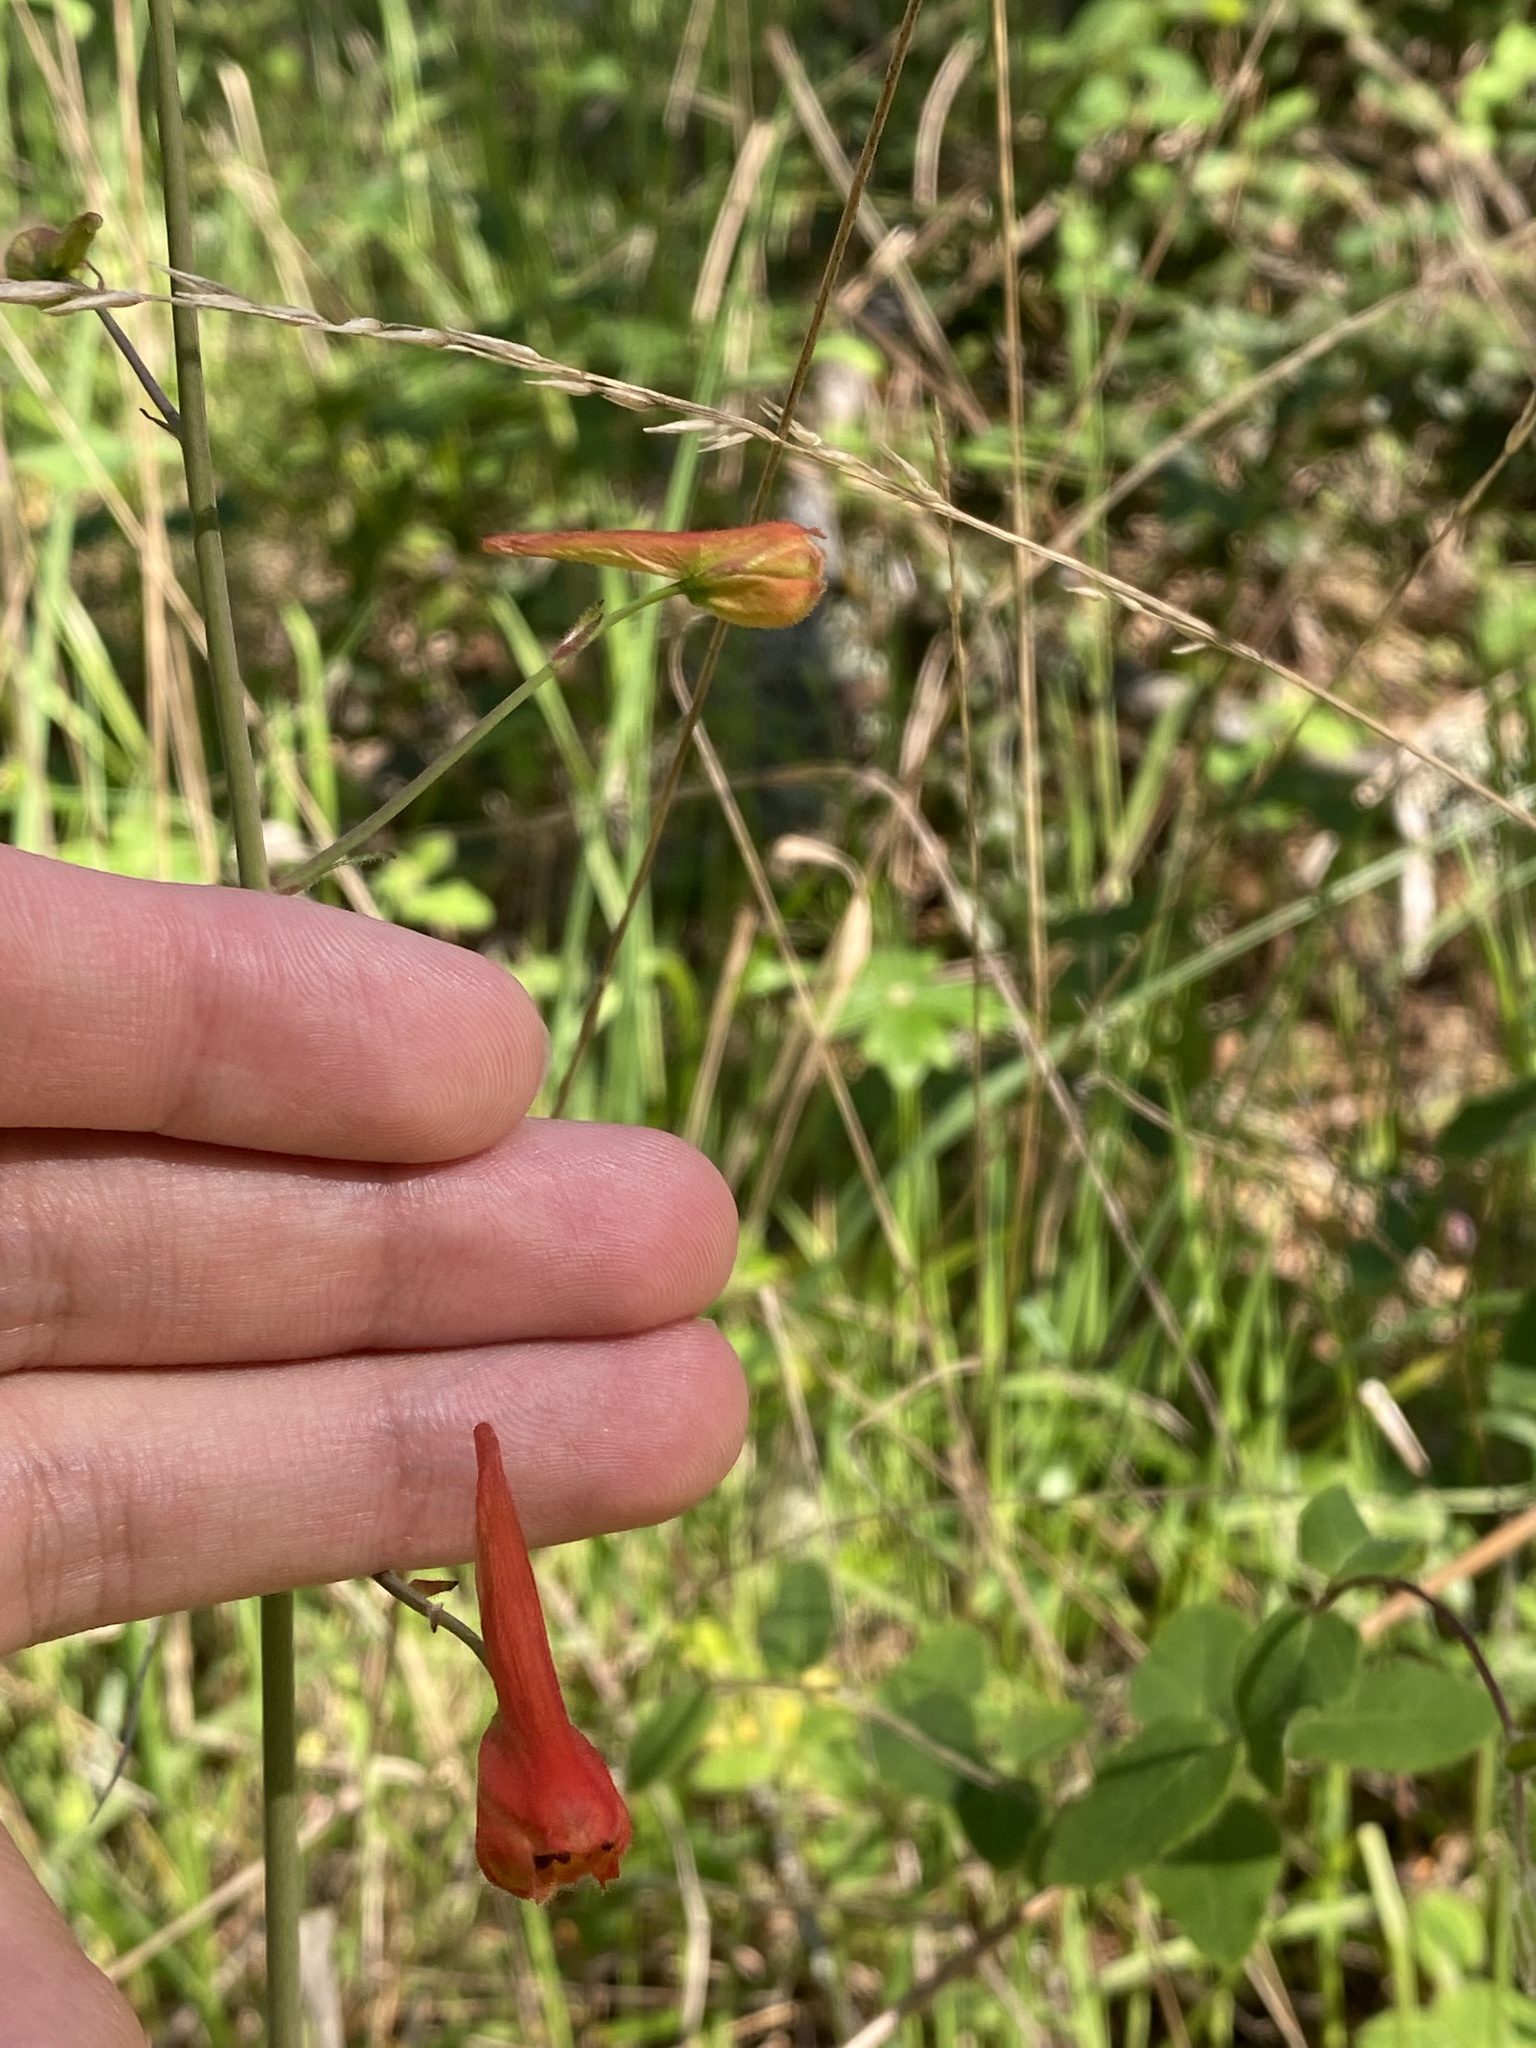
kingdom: Plantae
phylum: Tracheophyta
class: Magnoliopsida
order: Ranunculales
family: Ranunculaceae
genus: Delphinium
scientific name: Delphinium nudicaule
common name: Red larkspur
